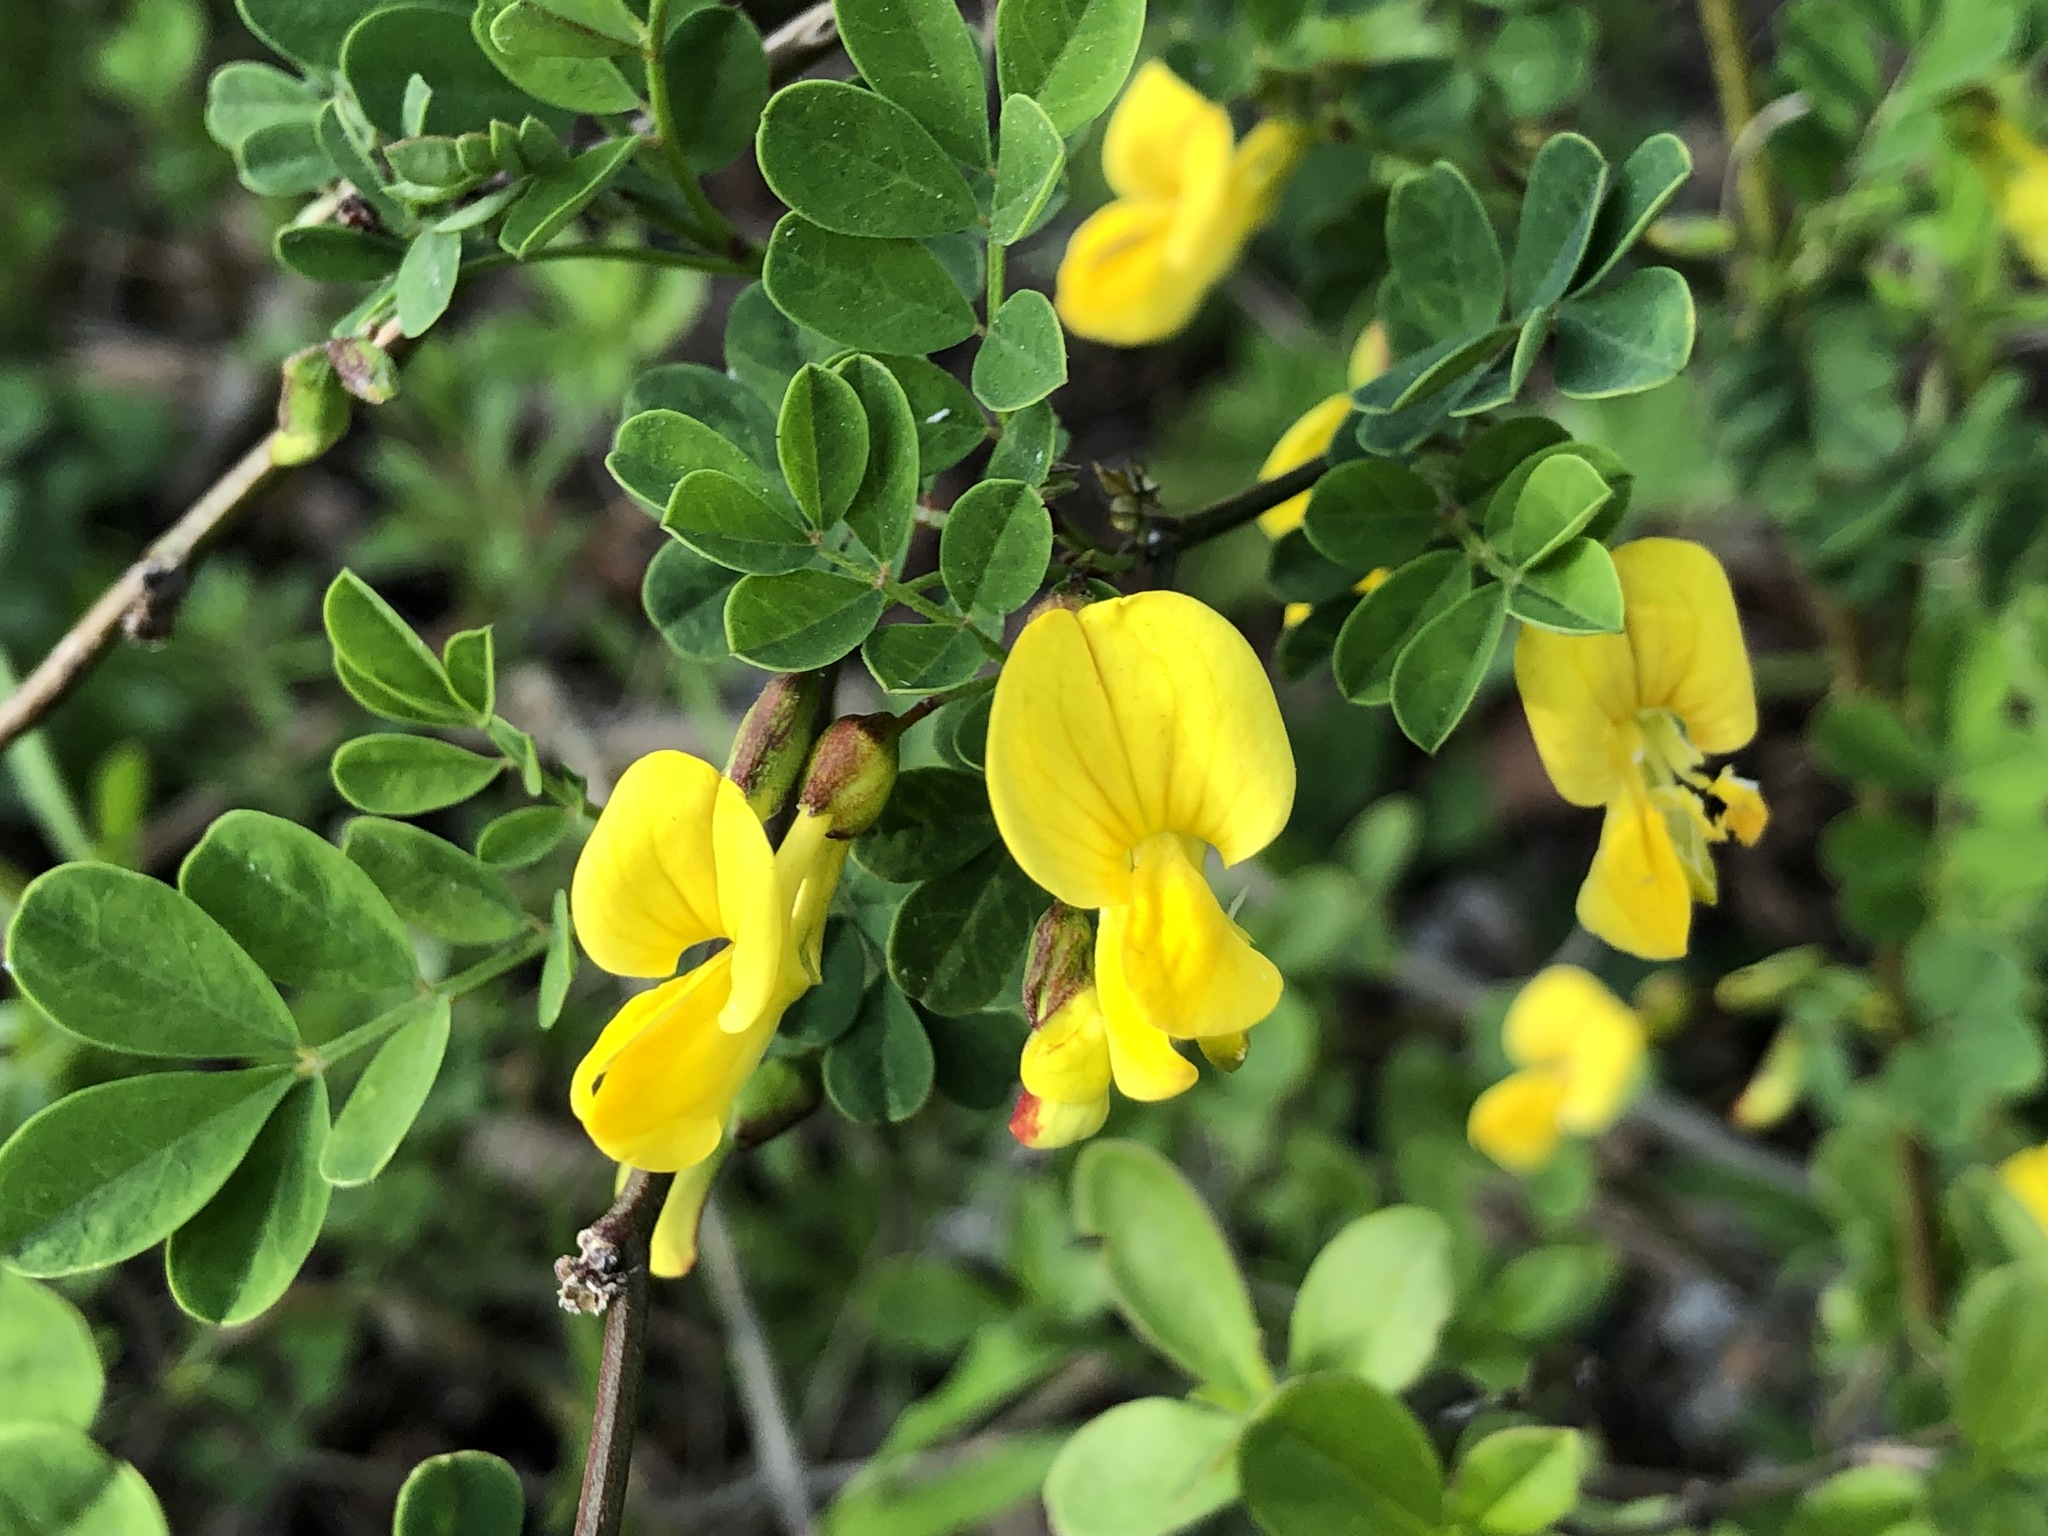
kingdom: Plantae
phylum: Tracheophyta
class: Magnoliopsida
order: Fabales
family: Fabaceae
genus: Hippocrepis
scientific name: Hippocrepis emerus
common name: Scorpion senna
